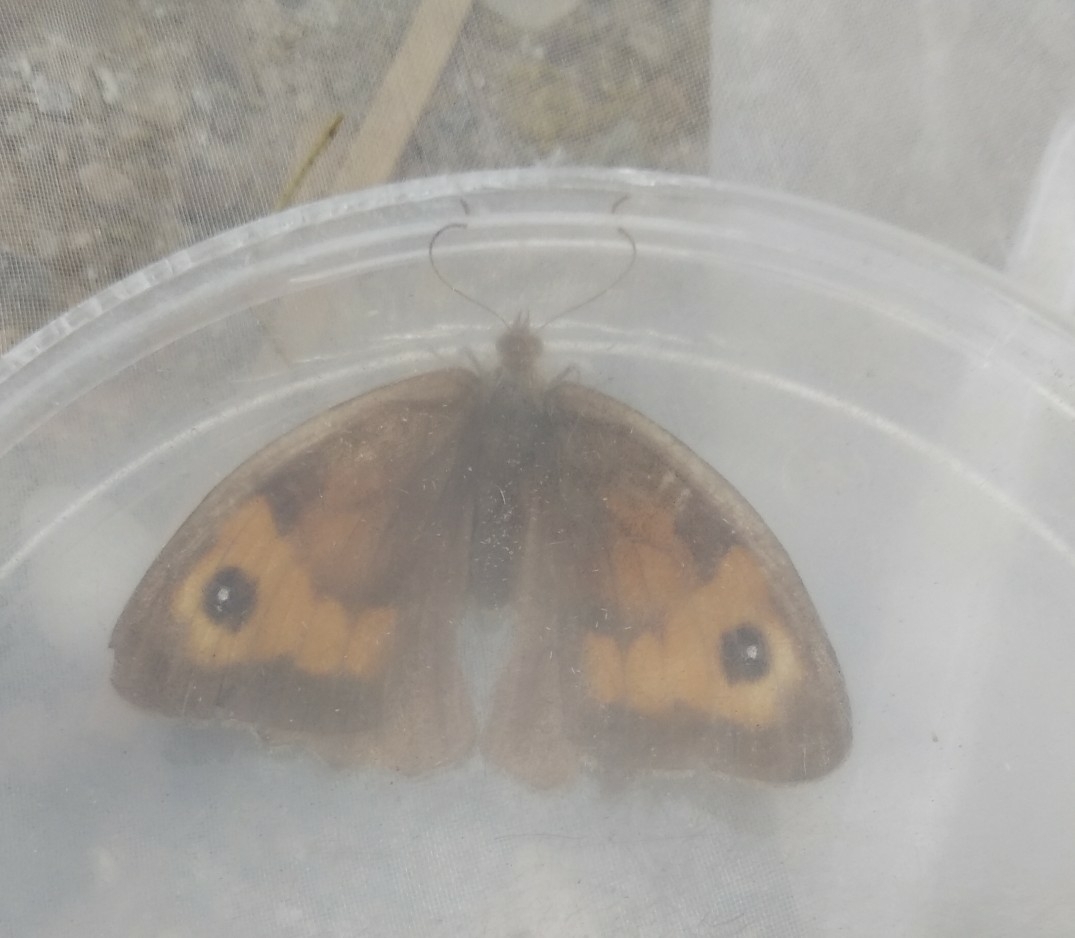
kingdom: Animalia
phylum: Arthropoda
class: Insecta
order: Lepidoptera
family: Nymphalidae
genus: Maniola
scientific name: Maniola jurtina
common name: Meadow brown
